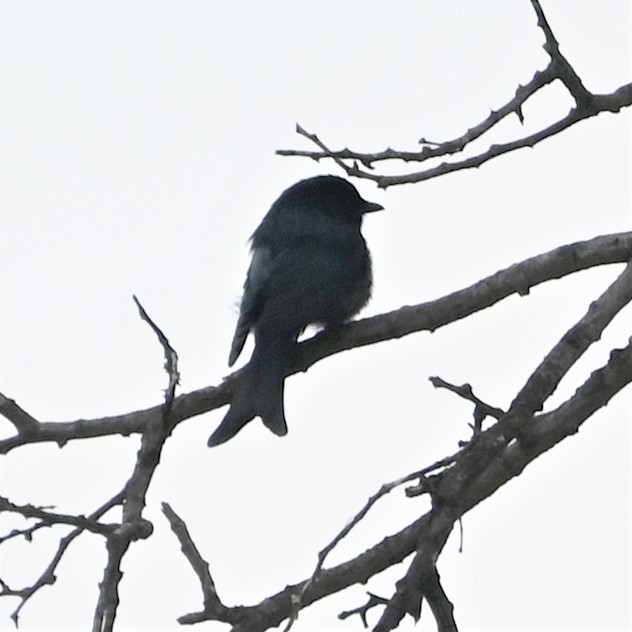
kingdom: Animalia
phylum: Chordata
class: Aves
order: Passeriformes
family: Dicruridae
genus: Dicrurus
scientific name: Dicrurus adsimilis
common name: Fork-tailed drongo
